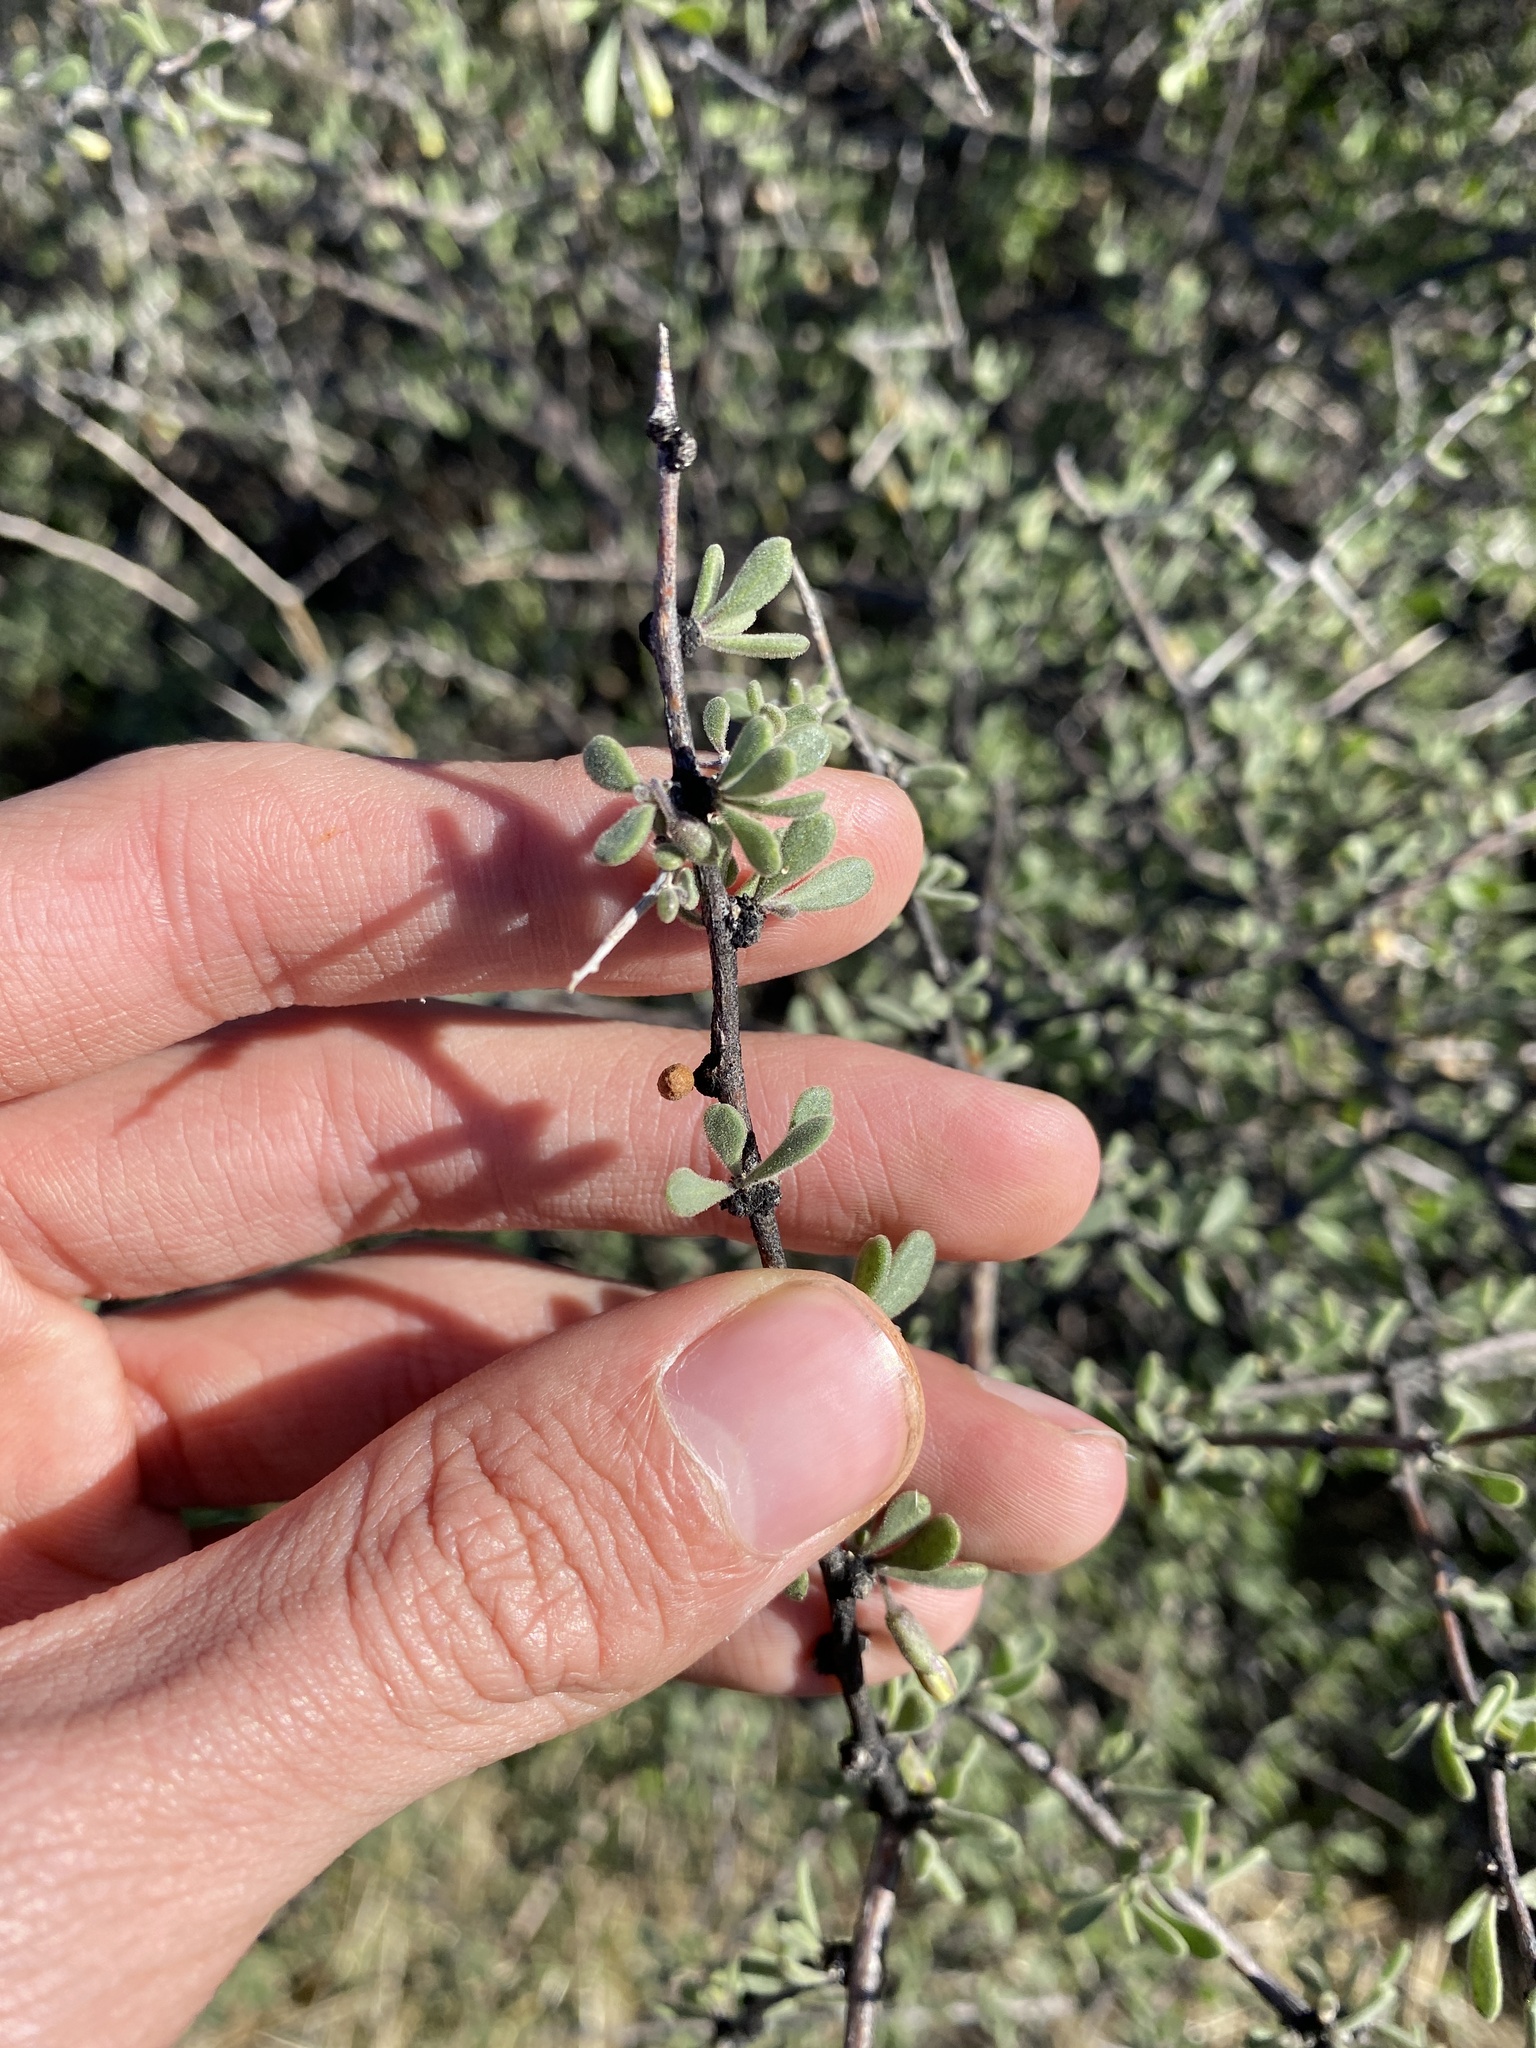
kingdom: Plantae
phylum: Tracheophyta
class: Magnoliopsida
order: Solanales
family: Solanaceae
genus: Lycium
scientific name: Lycium exsertum
